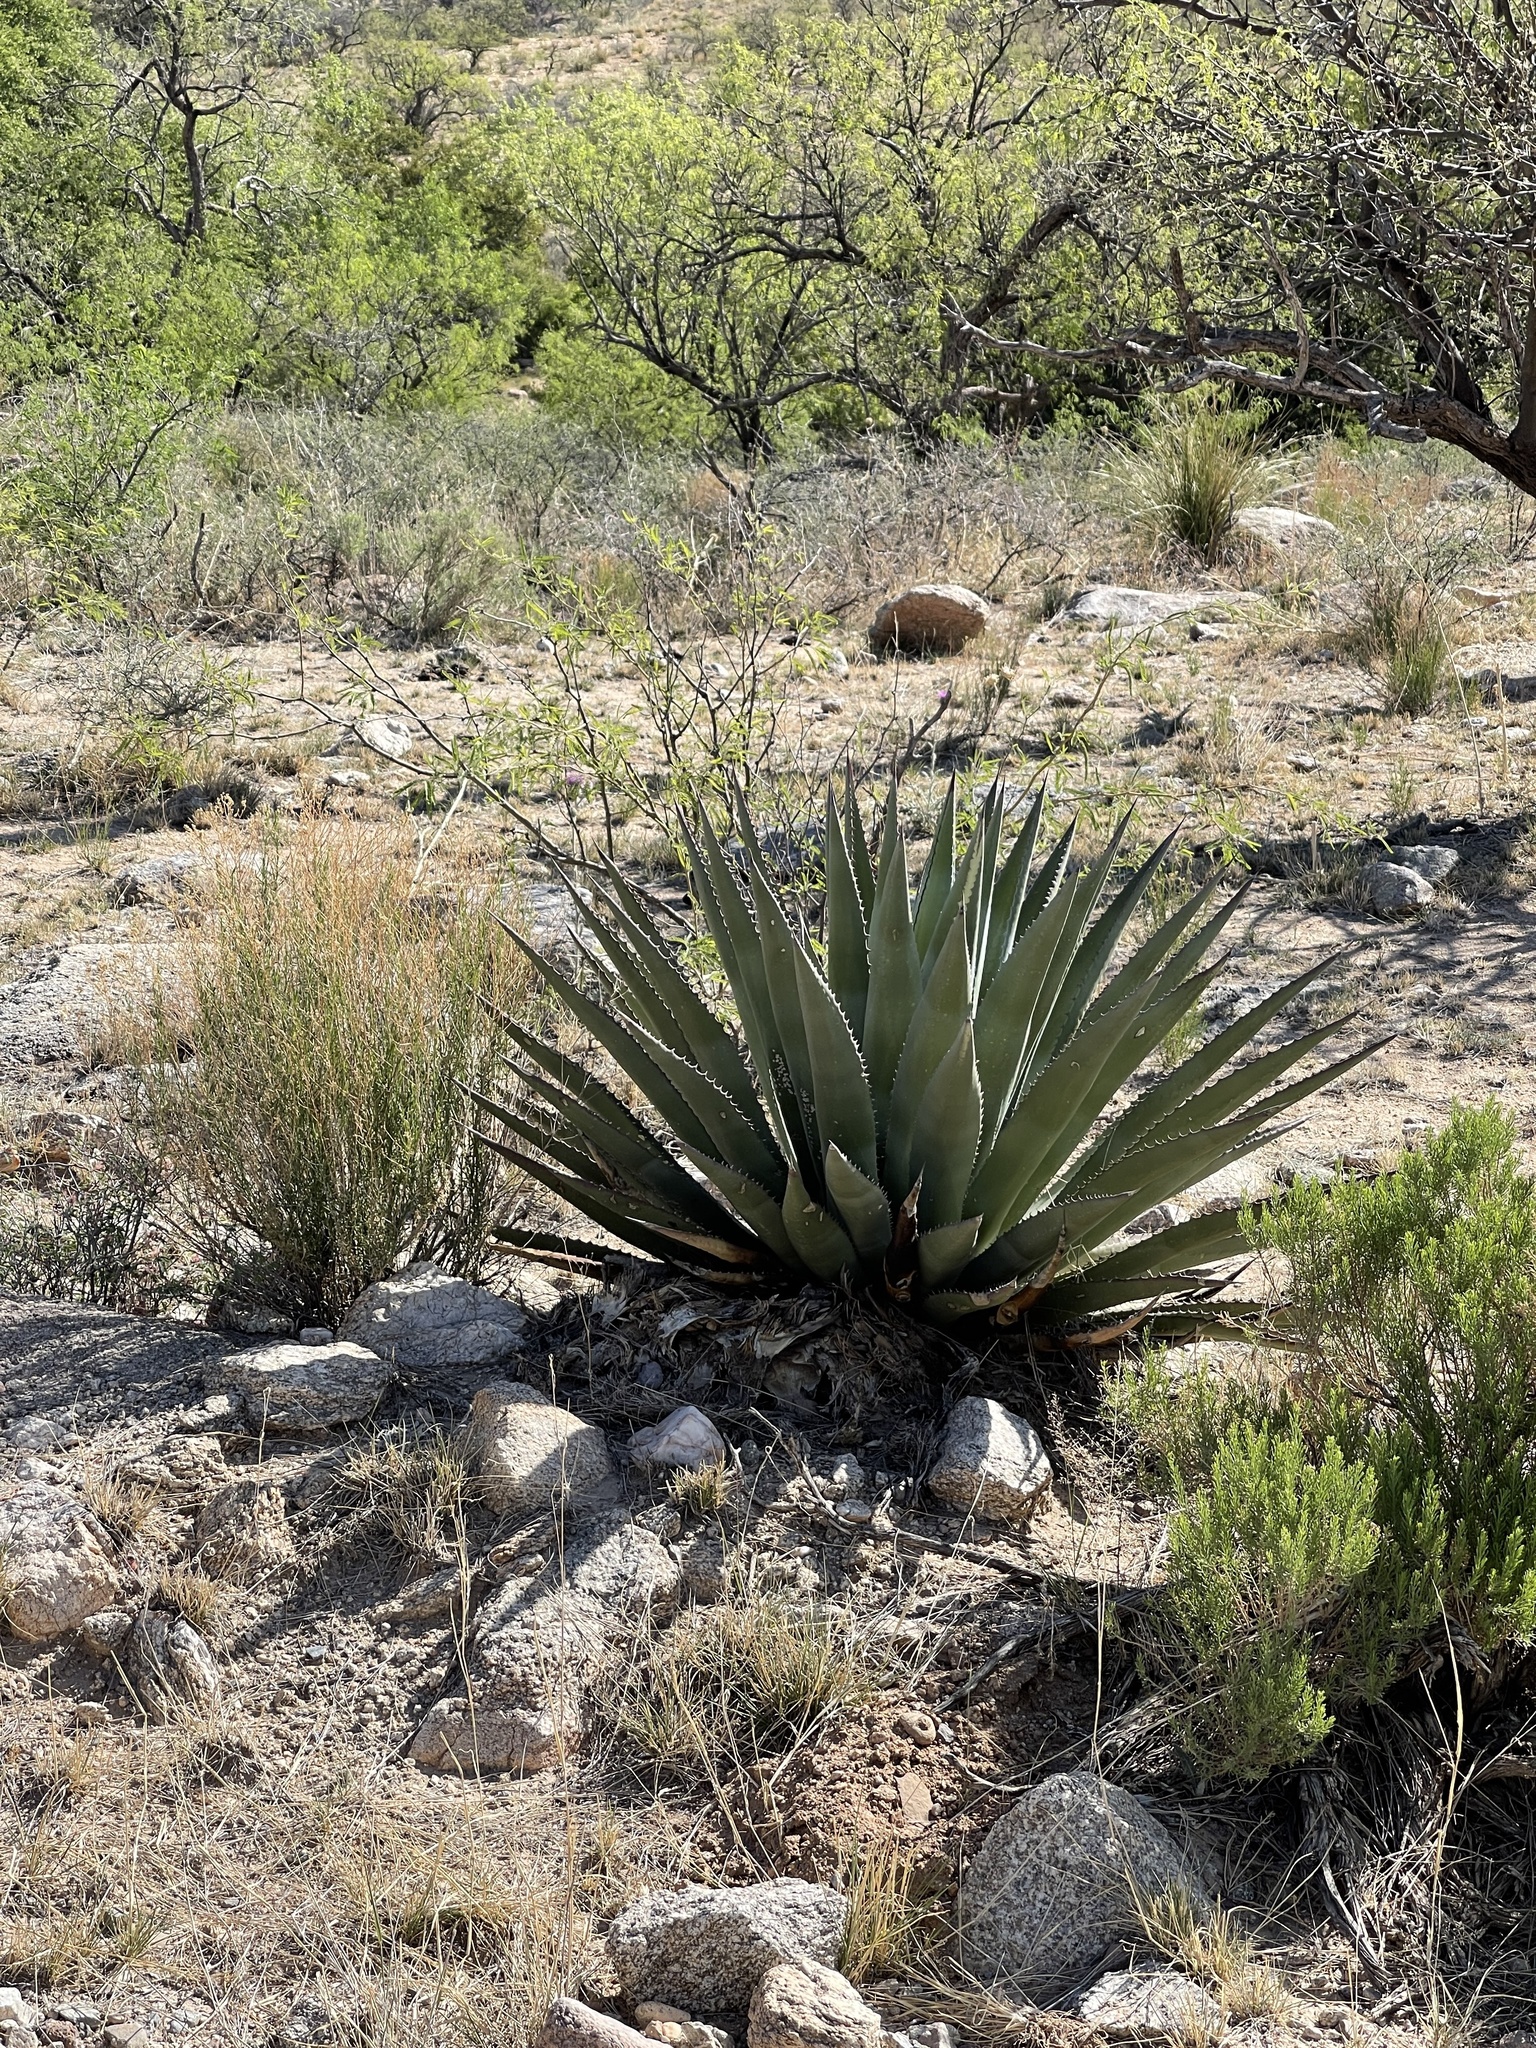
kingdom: Plantae
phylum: Tracheophyta
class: Liliopsida
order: Asparagales
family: Asparagaceae
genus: Agave
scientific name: Agave palmeri
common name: Palmer agave
